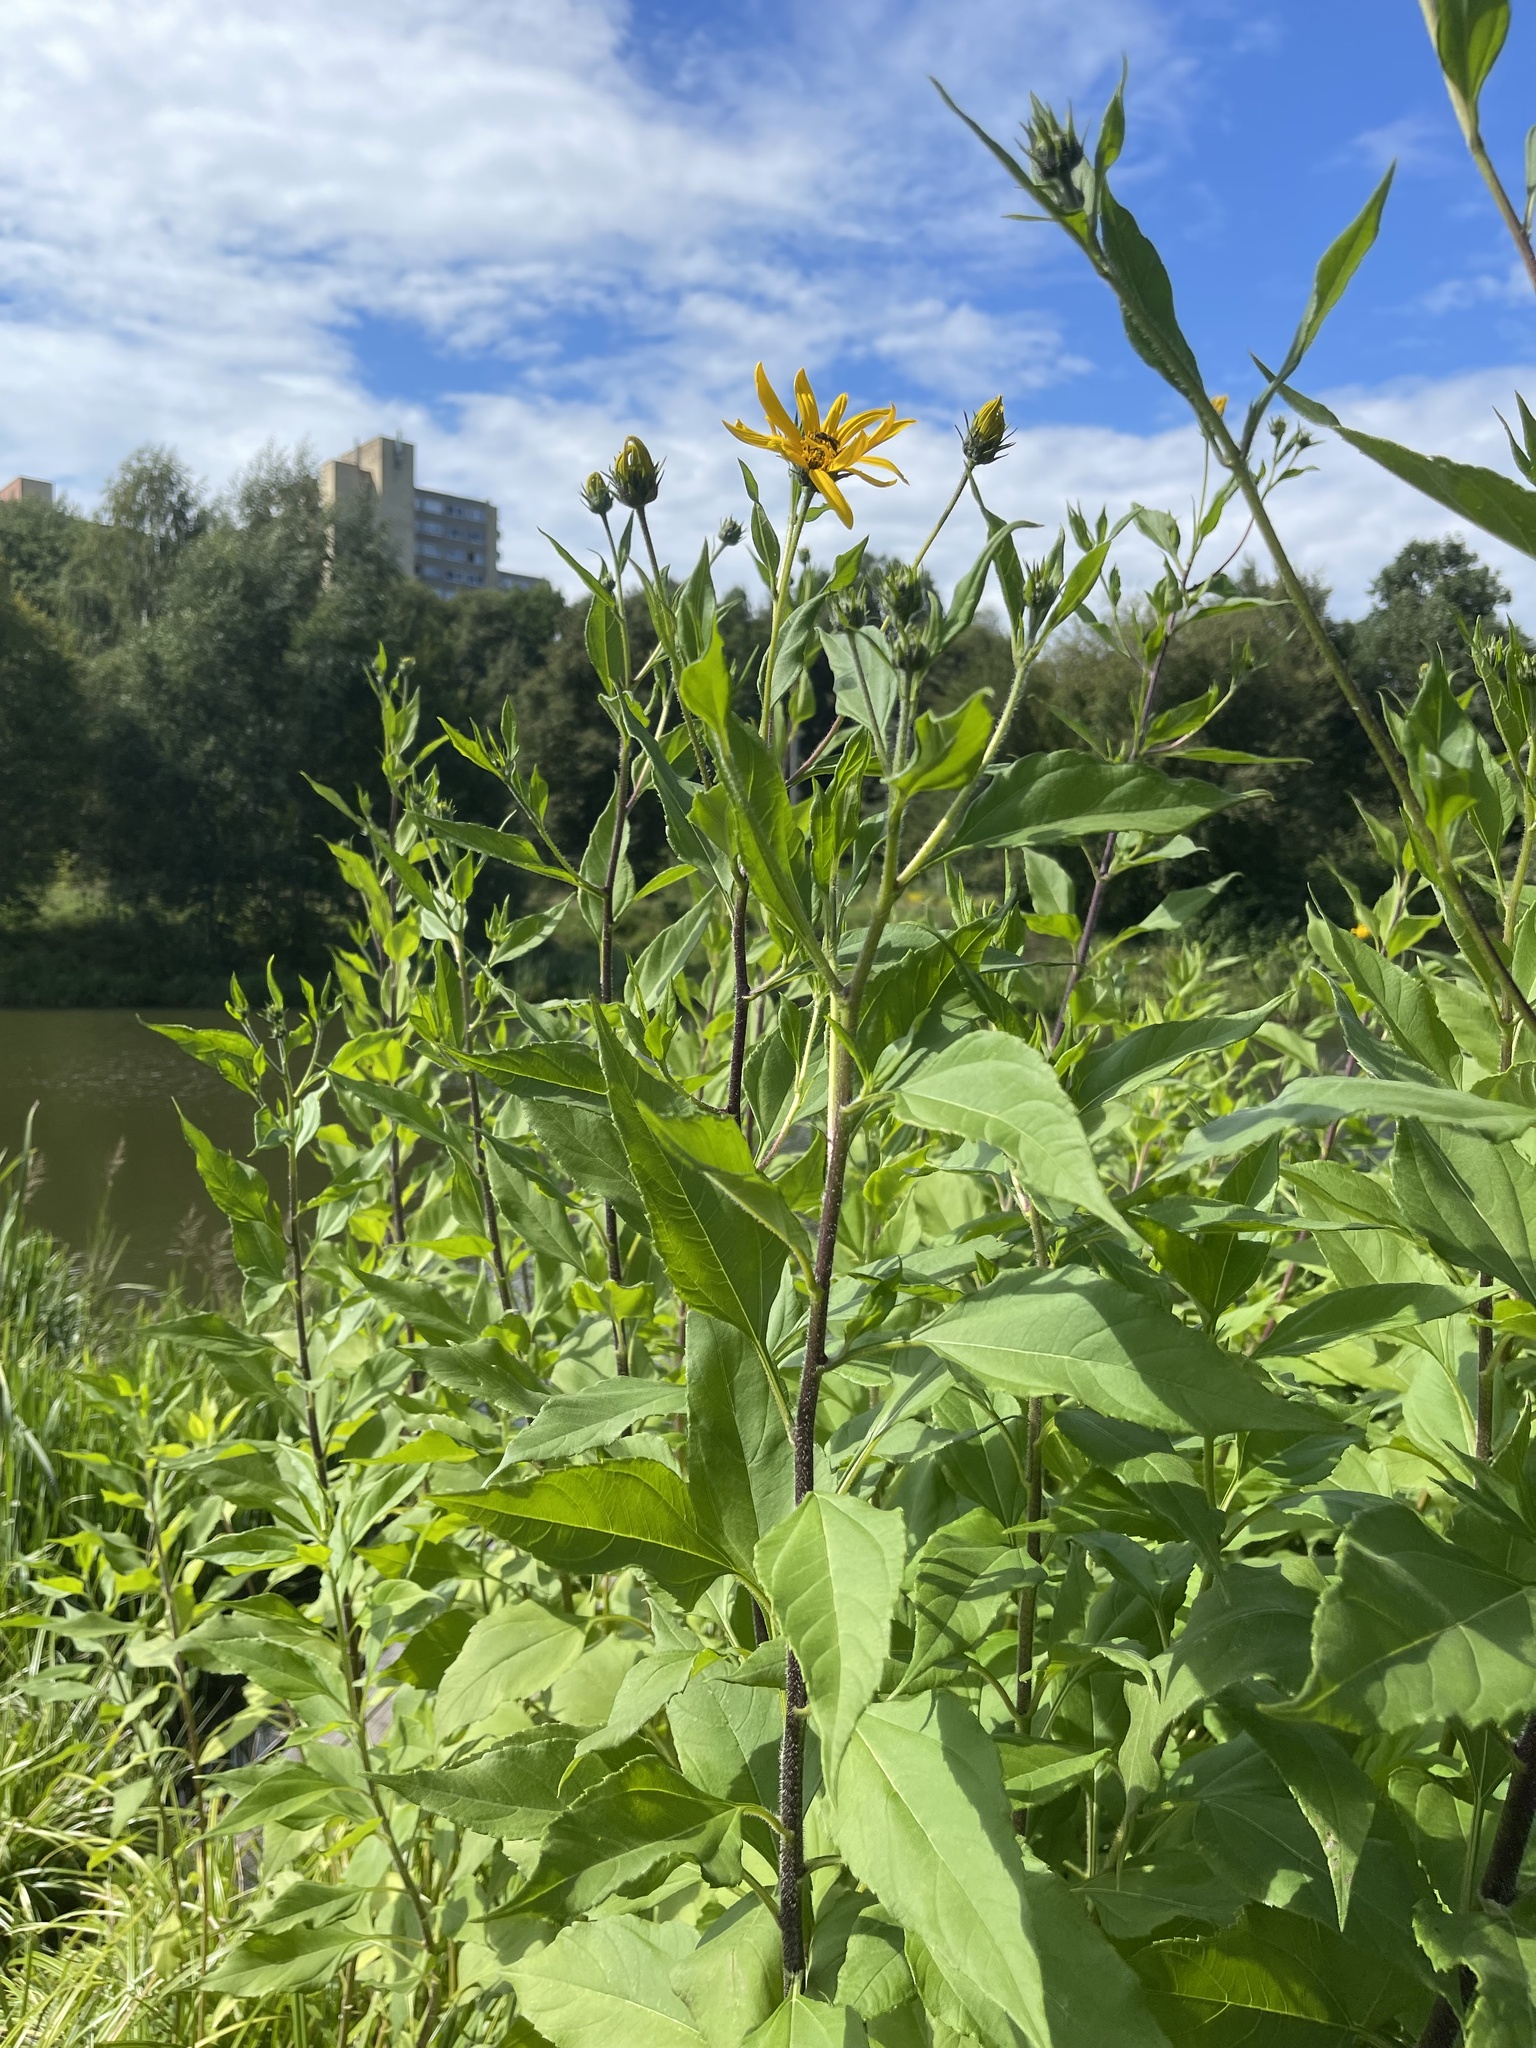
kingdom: Plantae
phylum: Tracheophyta
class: Magnoliopsida
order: Asterales
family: Asteraceae
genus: Helianthus
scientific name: Helianthus tuberosus
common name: Jerusalem artichoke
